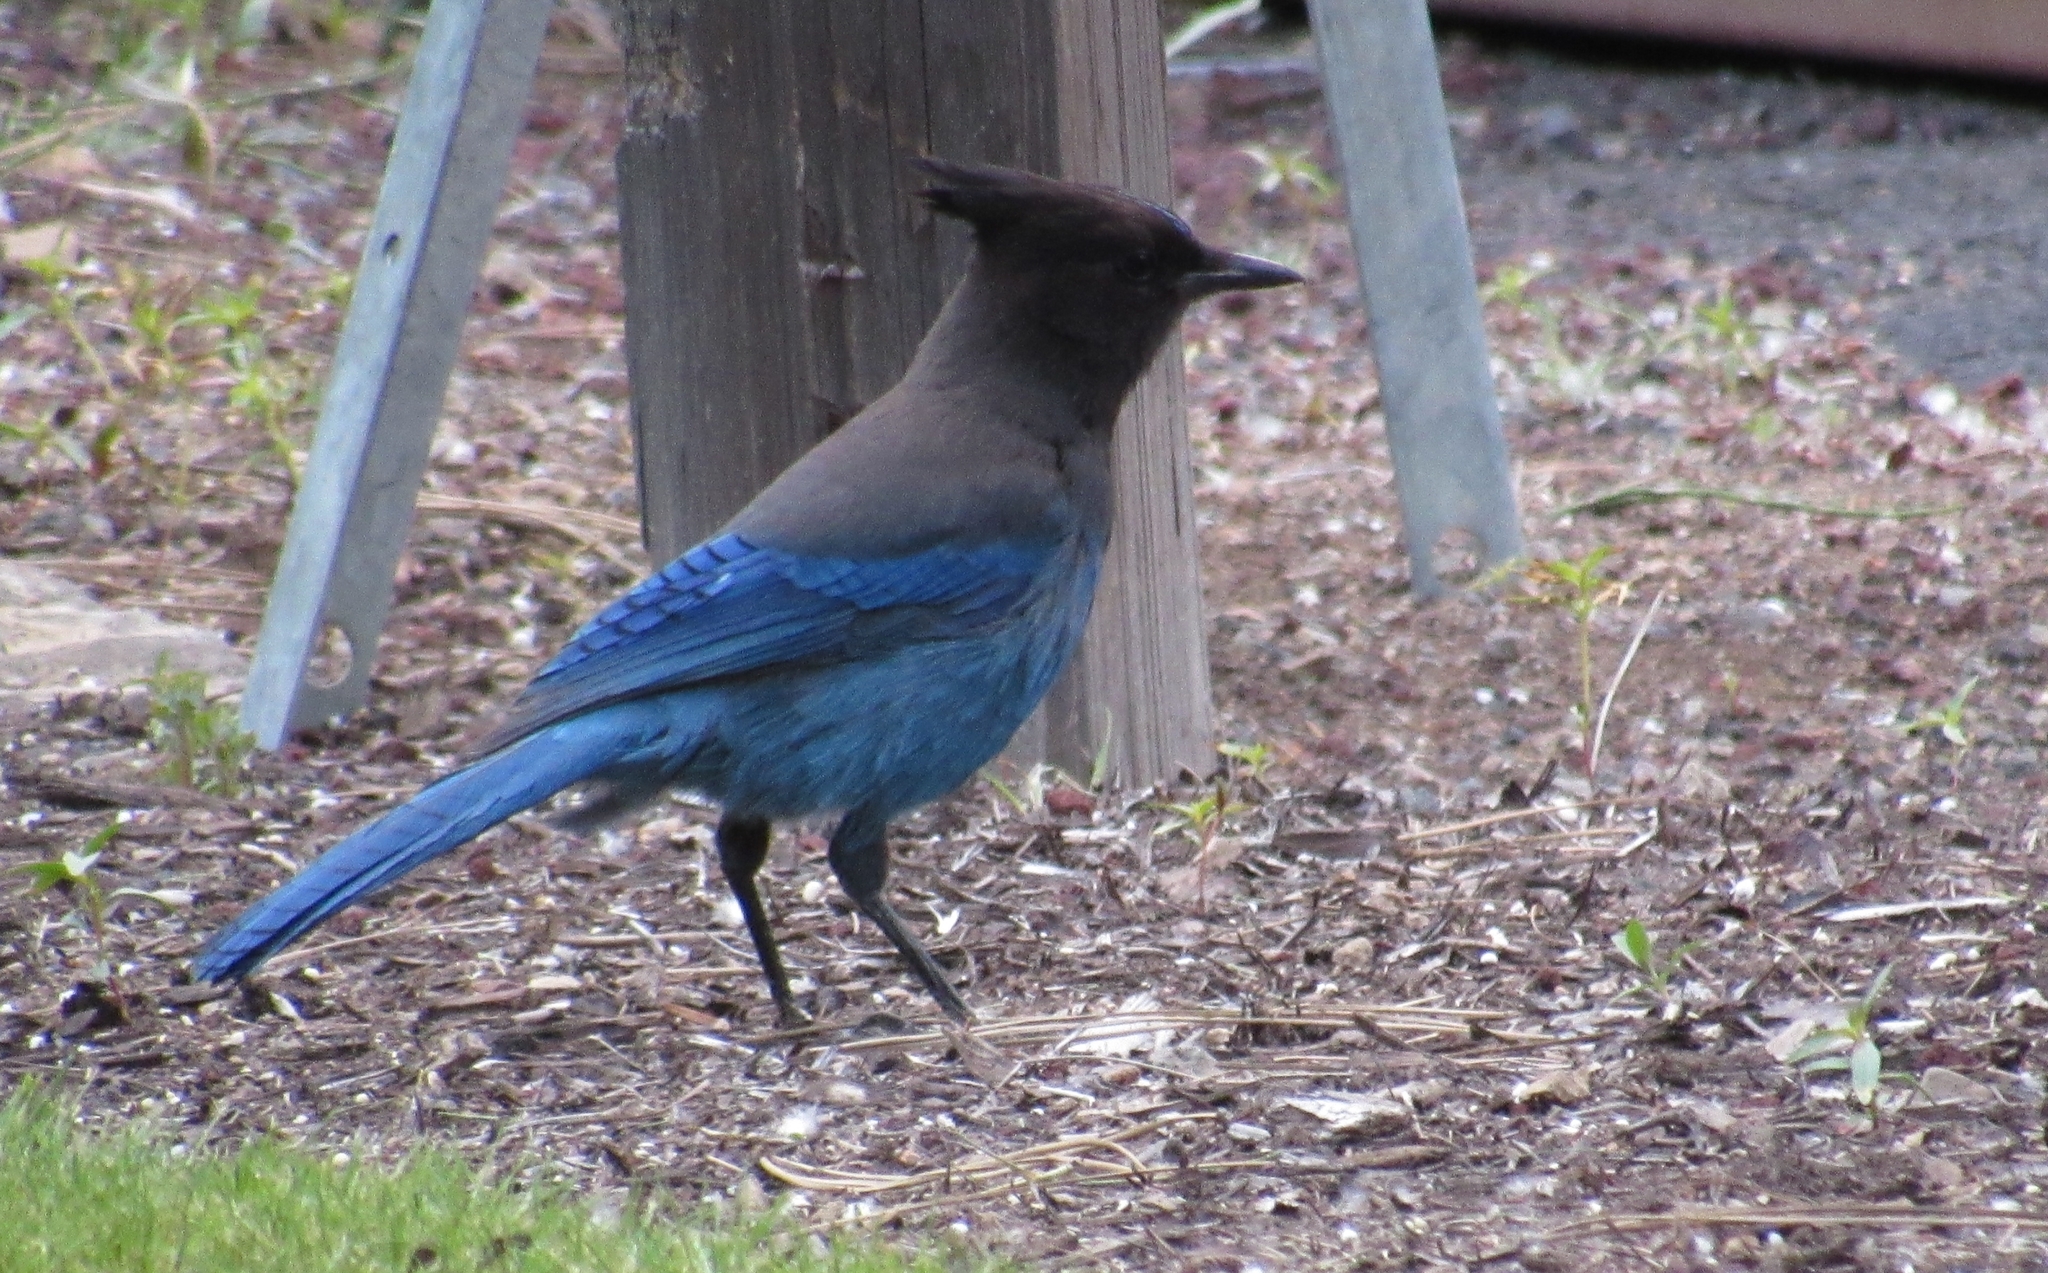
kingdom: Animalia
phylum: Chordata
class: Aves
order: Passeriformes
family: Corvidae
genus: Cyanocitta
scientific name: Cyanocitta stelleri
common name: Steller's jay
